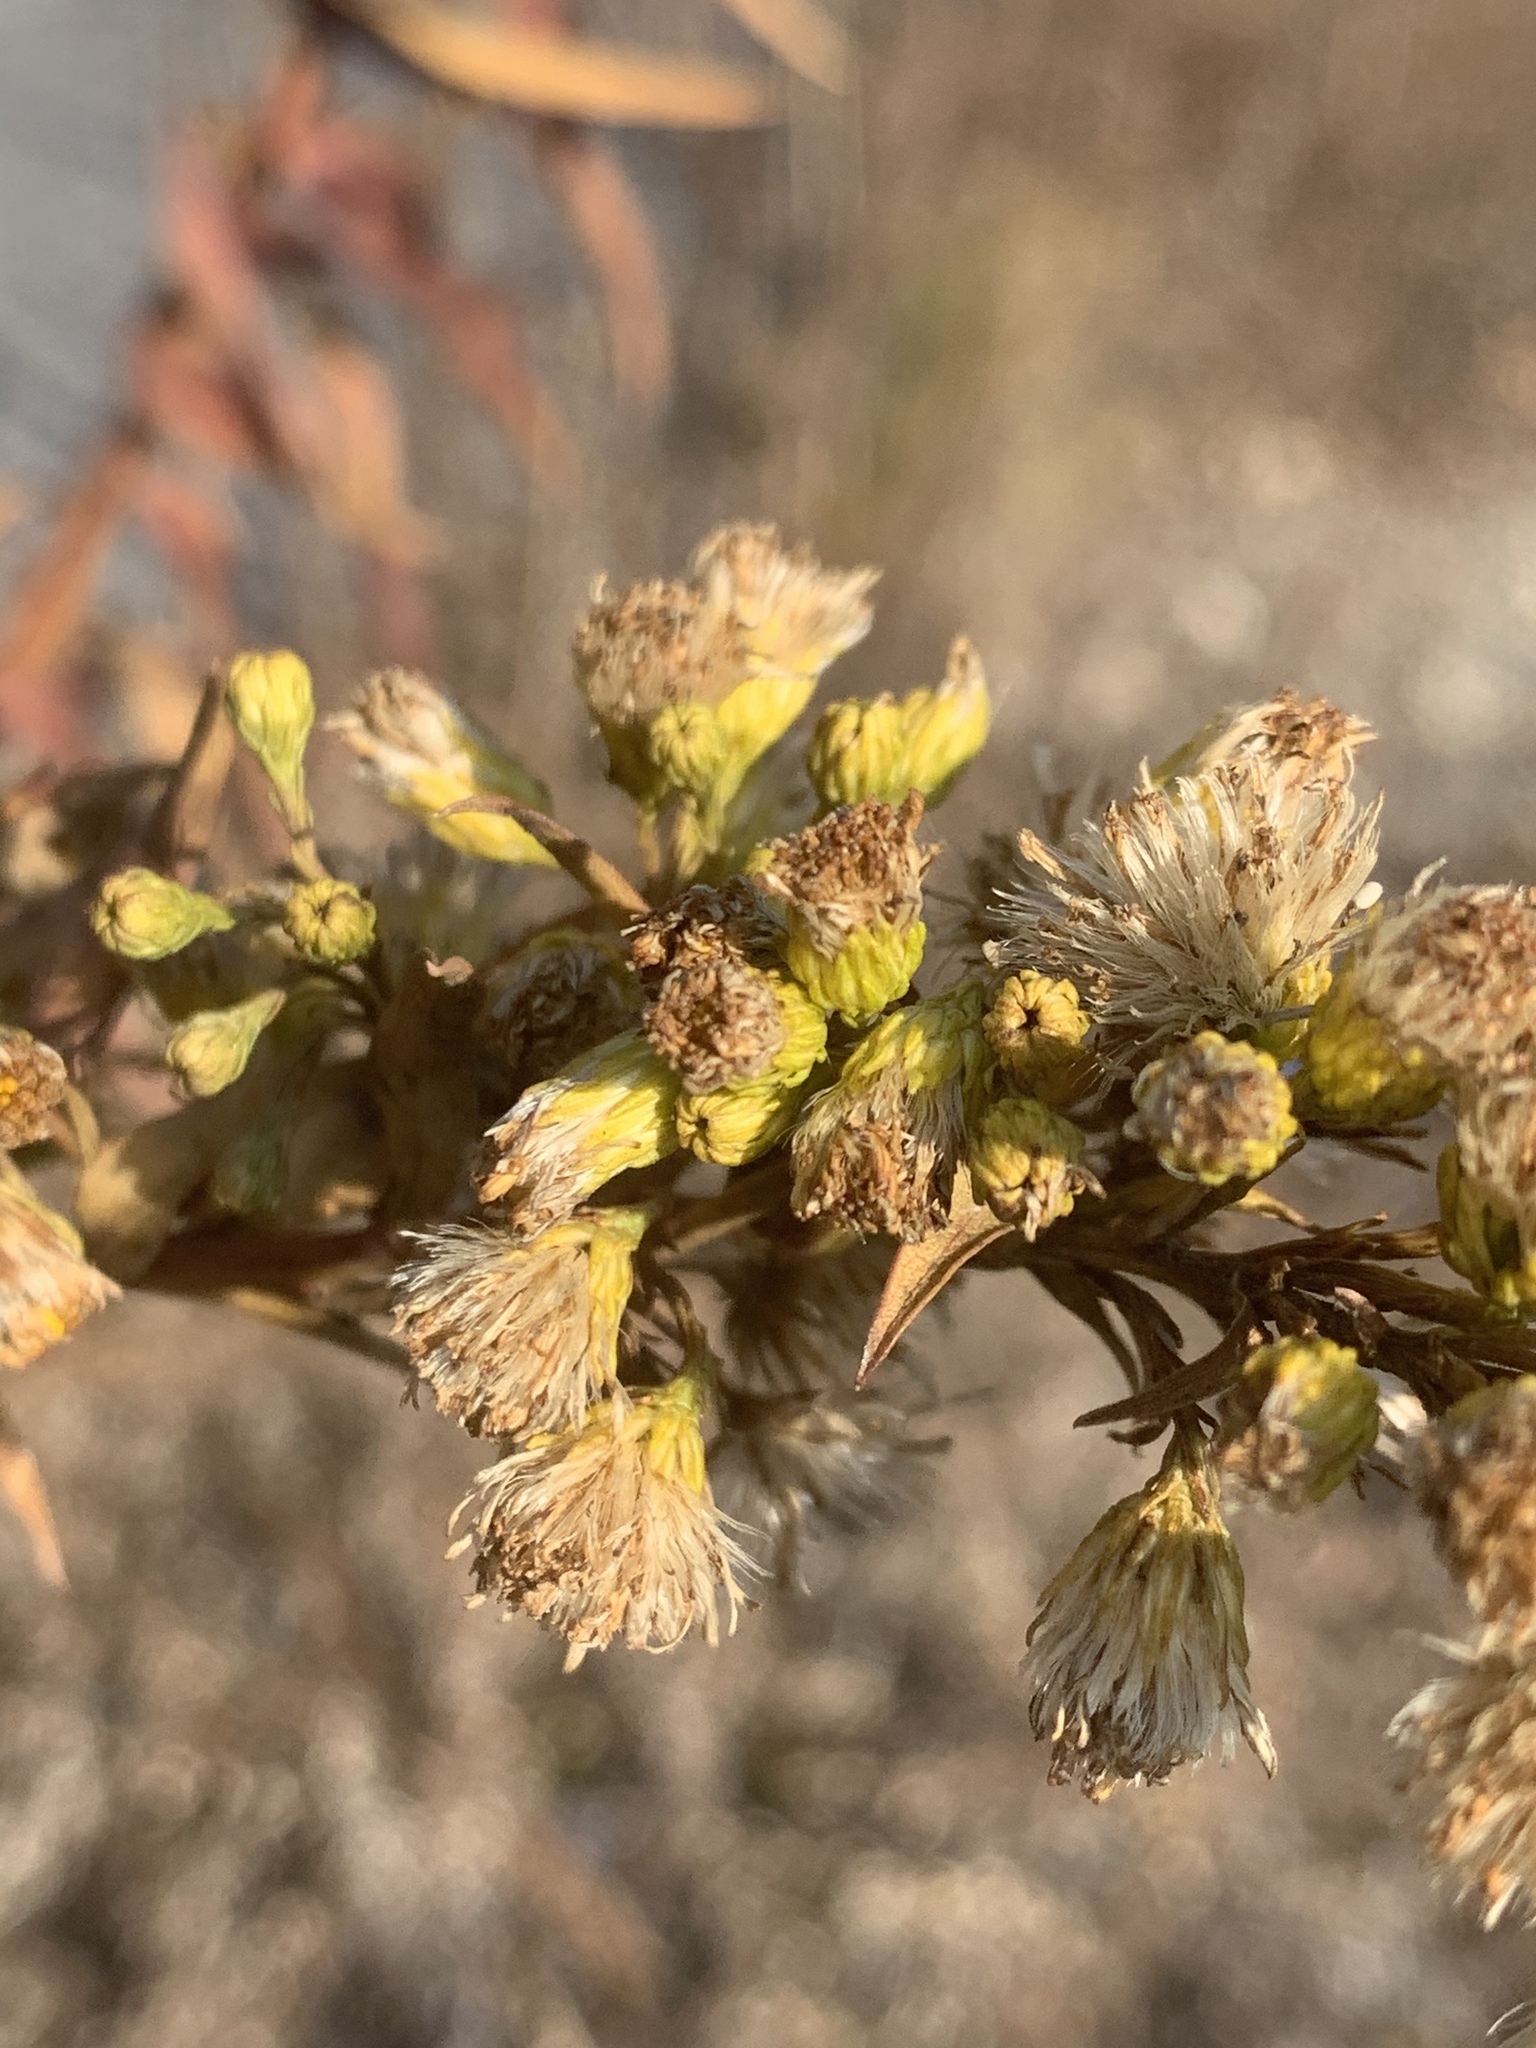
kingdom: Plantae
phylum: Tracheophyta
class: Magnoliopsida
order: Asterales
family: Asteraceae
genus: Solidago
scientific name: Solidago sempervirens
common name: Salt-marsh goldenrod
